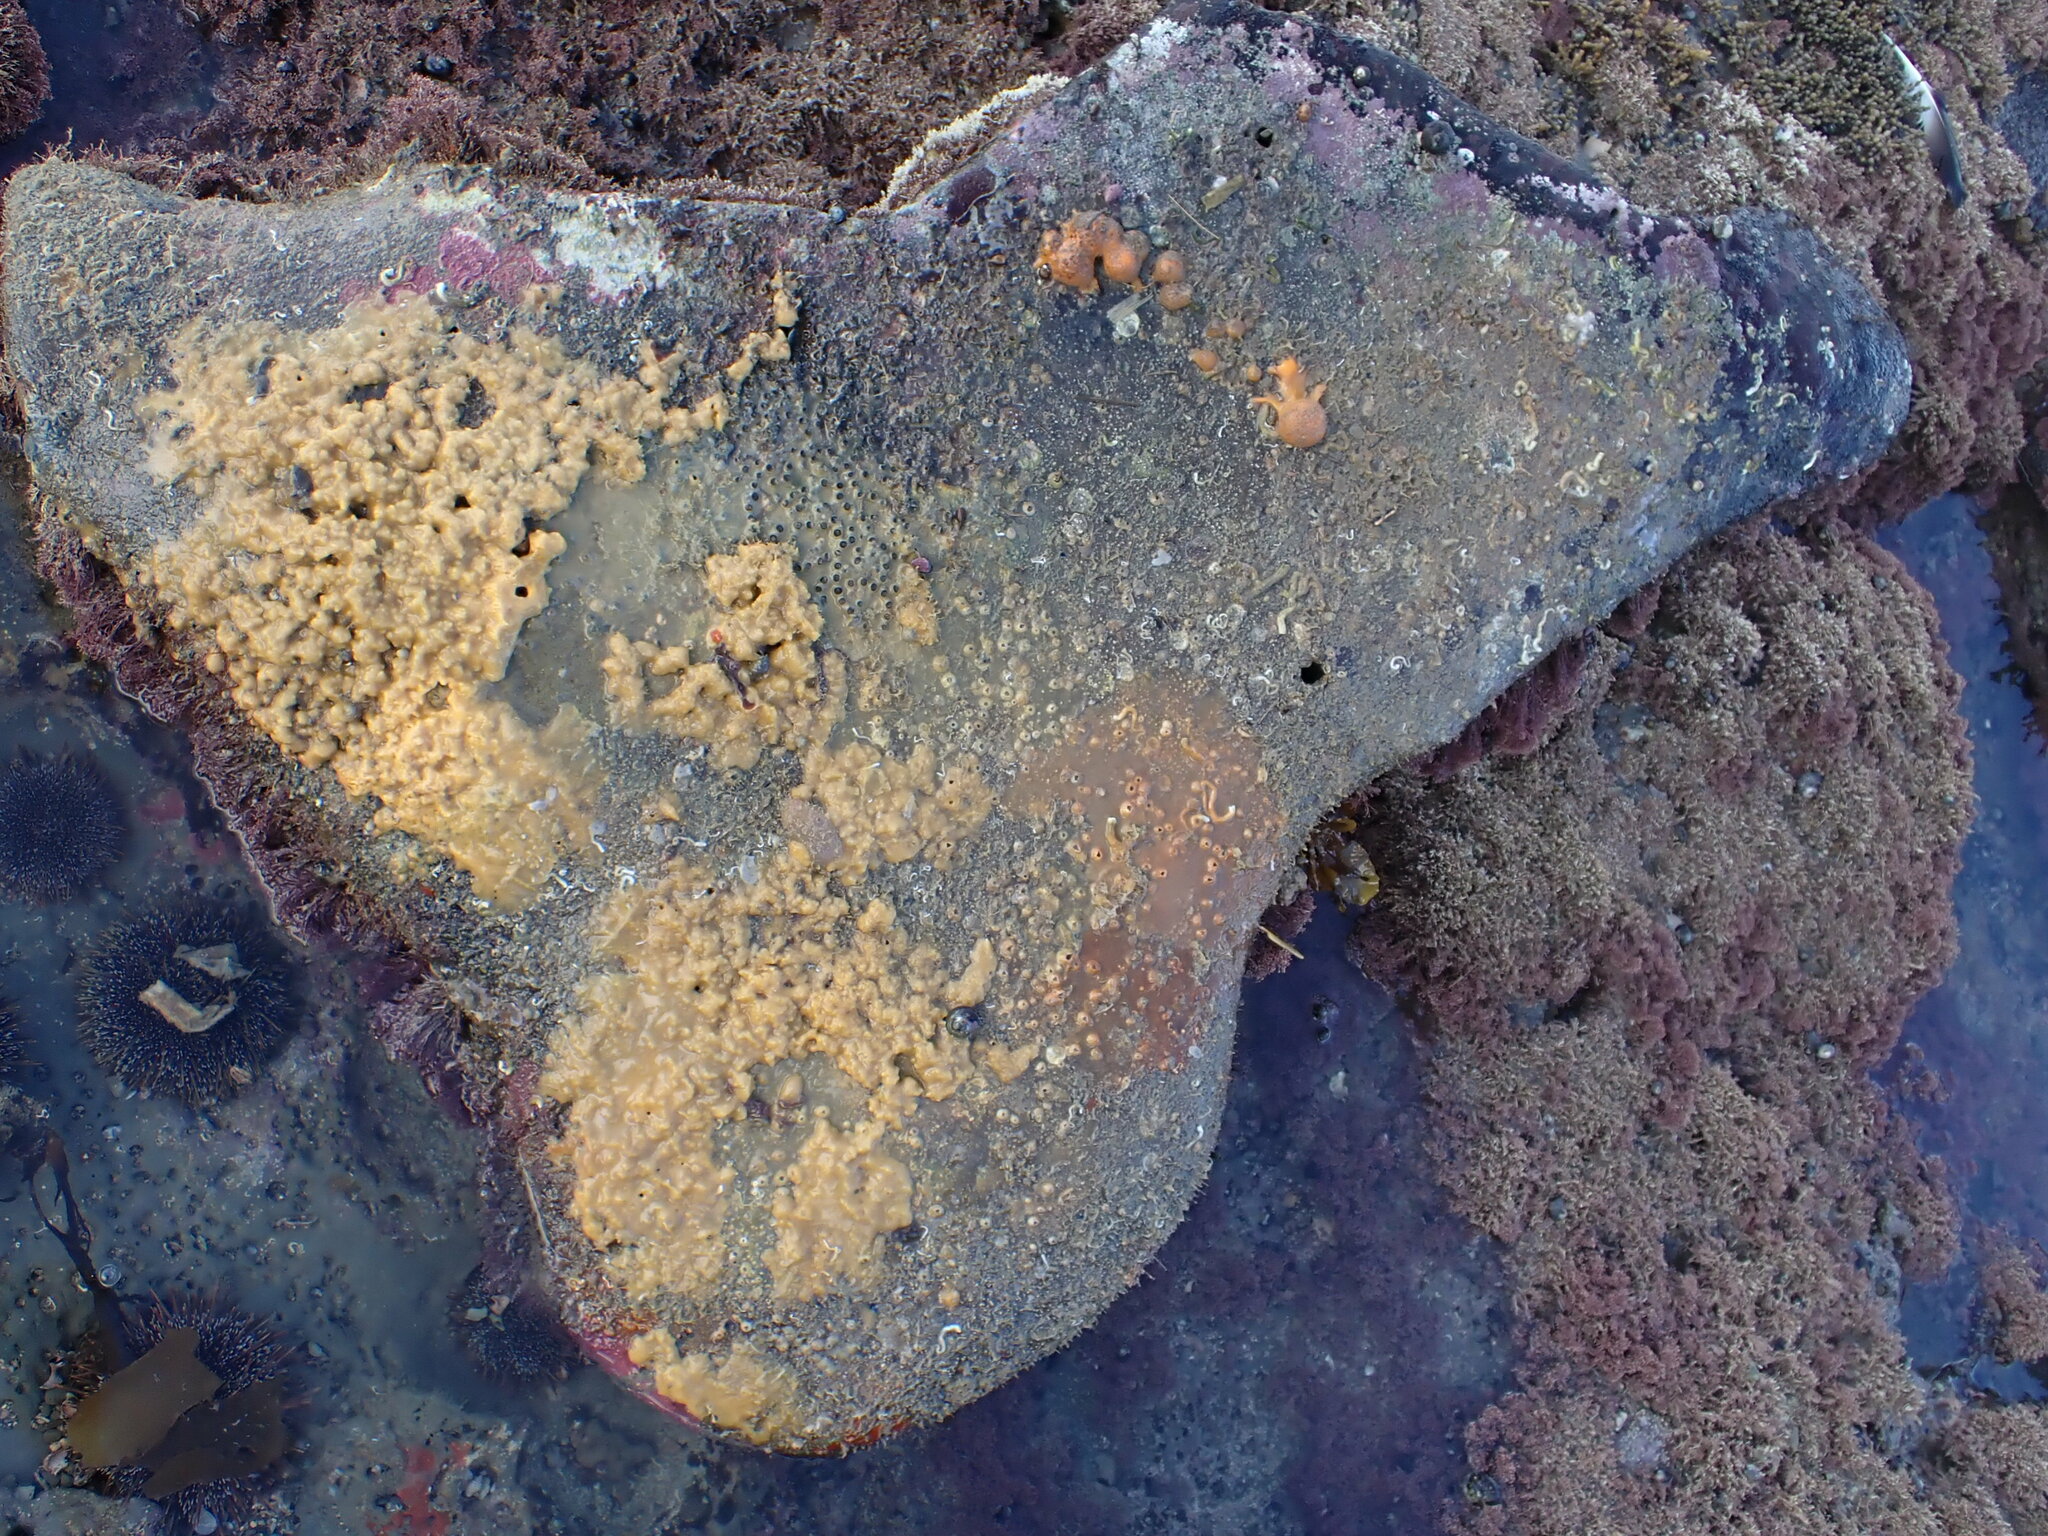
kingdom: Animalia
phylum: Cnidaria
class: Anthozoa
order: Scleractinia
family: Rhizangiidae
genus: Culicia
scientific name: Culicia rubeola
